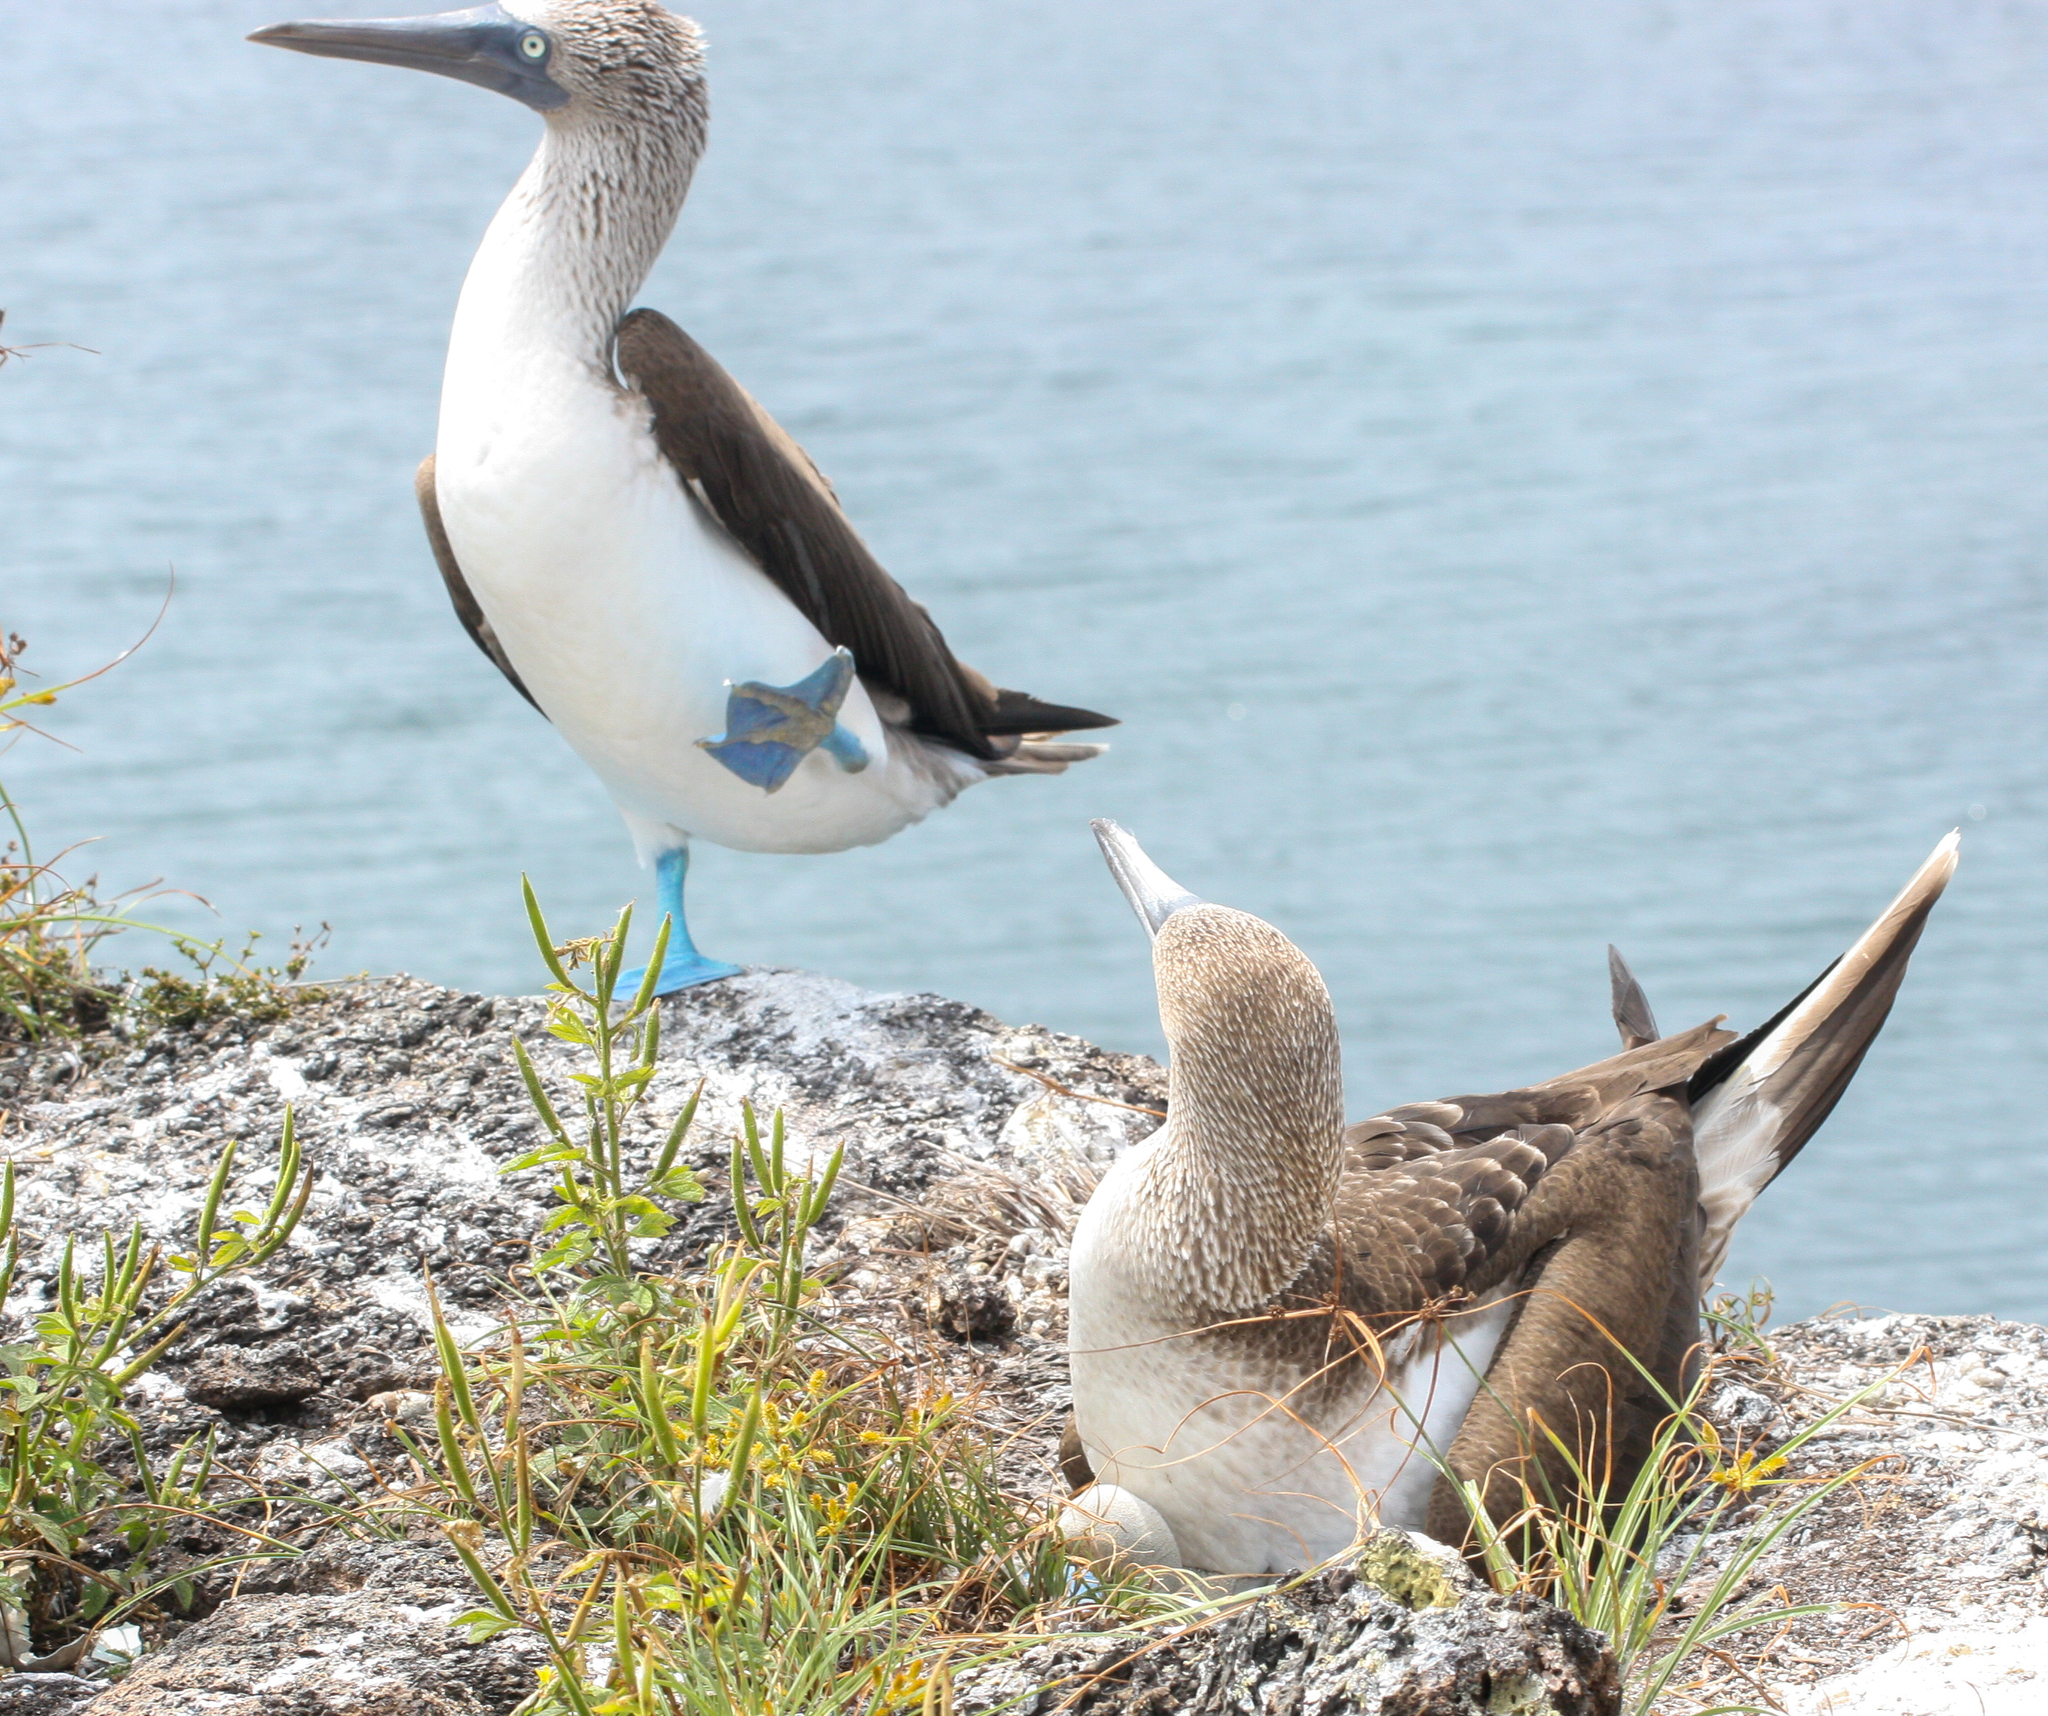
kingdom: Animalia
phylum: Chordata
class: Aves
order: Suliformes
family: Sulidae
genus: Sula
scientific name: Sula nebouxii
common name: Blue-footed booby
